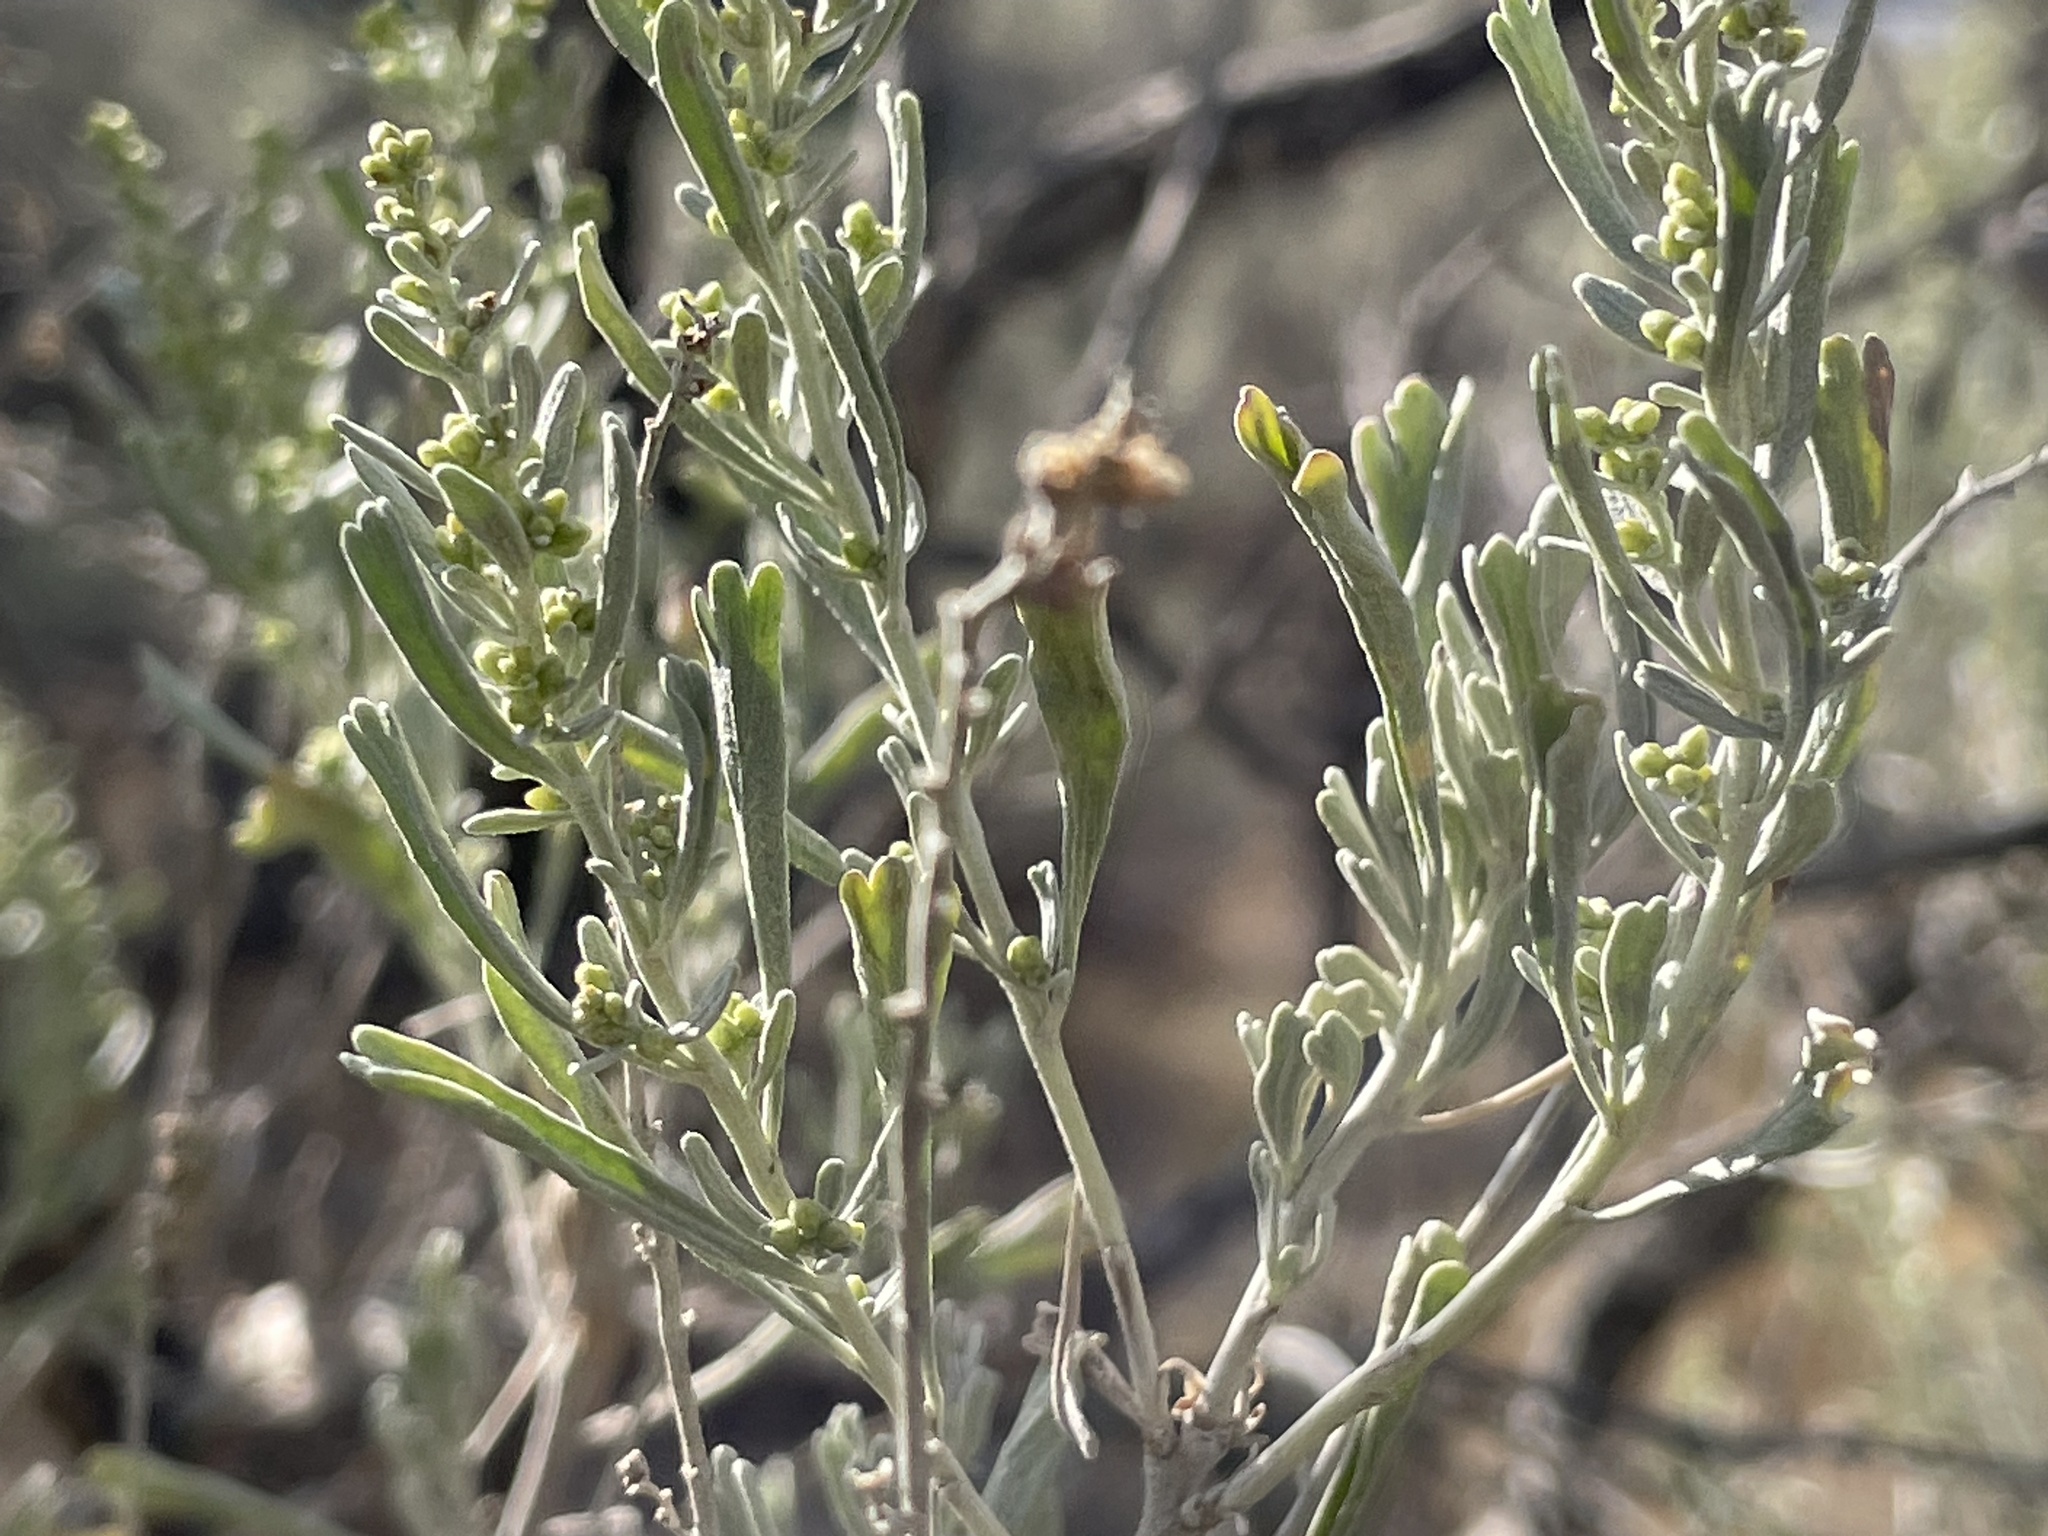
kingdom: Plantae
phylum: Tracheophyta
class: Magnoliopsida
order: Asterales
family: Asteraceae
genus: Artemisia
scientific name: Artemisia tridentata
